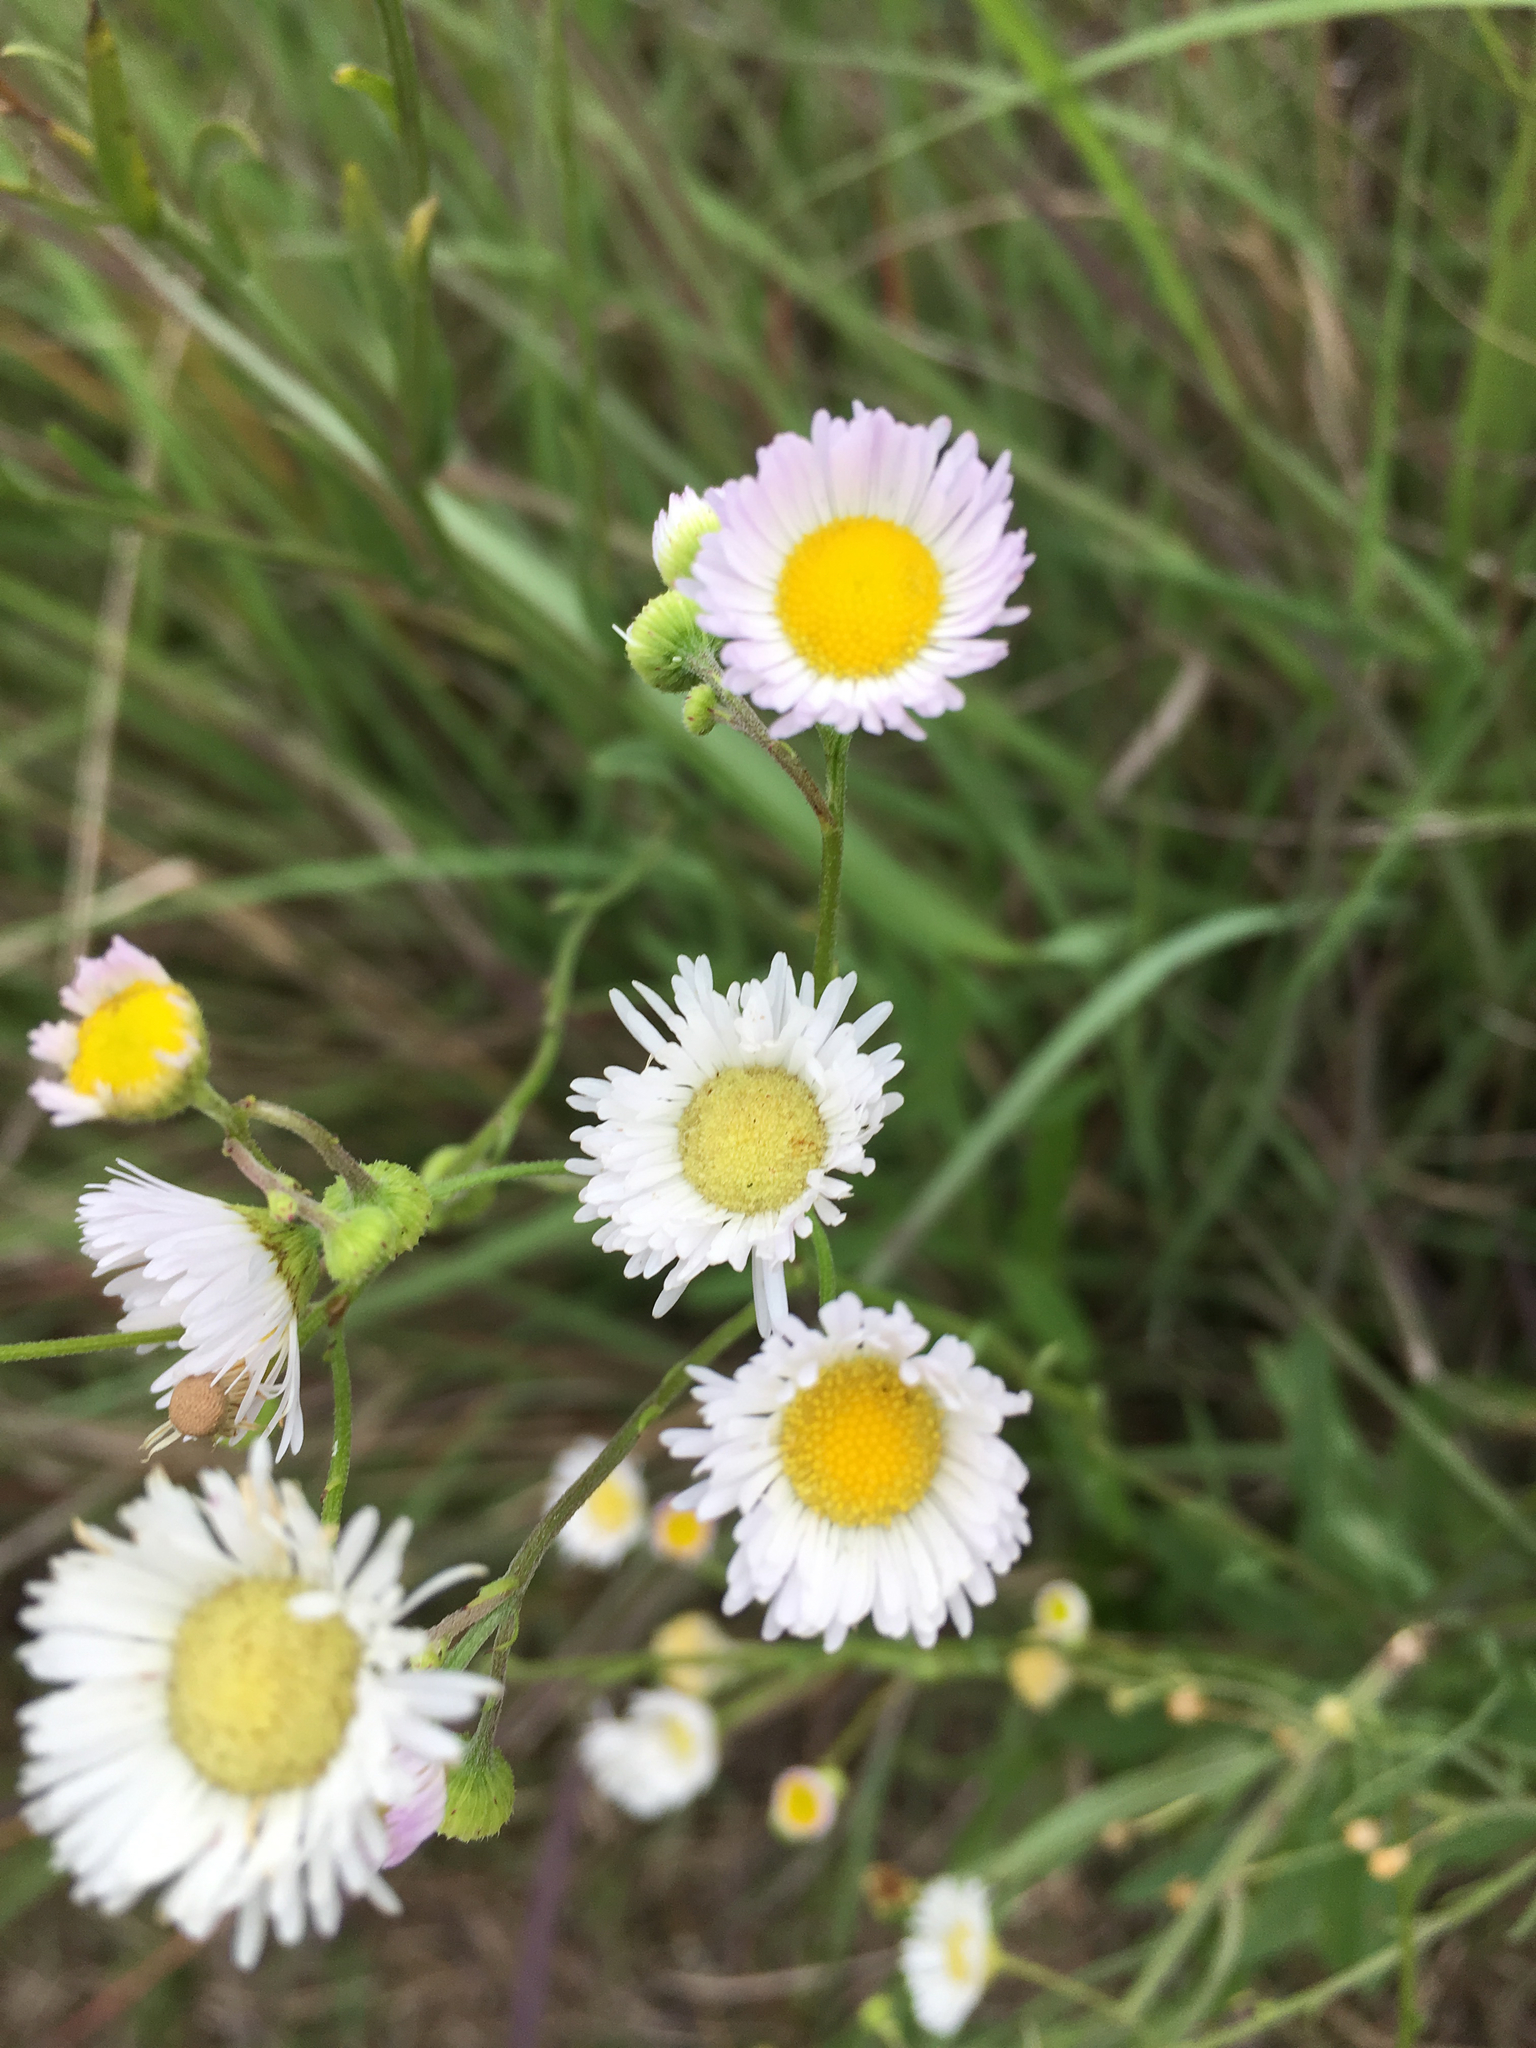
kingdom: Plantae
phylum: Tracheophyta
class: Magnoliopsida
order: Asterales
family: Asteraceae
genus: Erigeron
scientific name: Erigeron strigosus
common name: Common eastern fleabane
